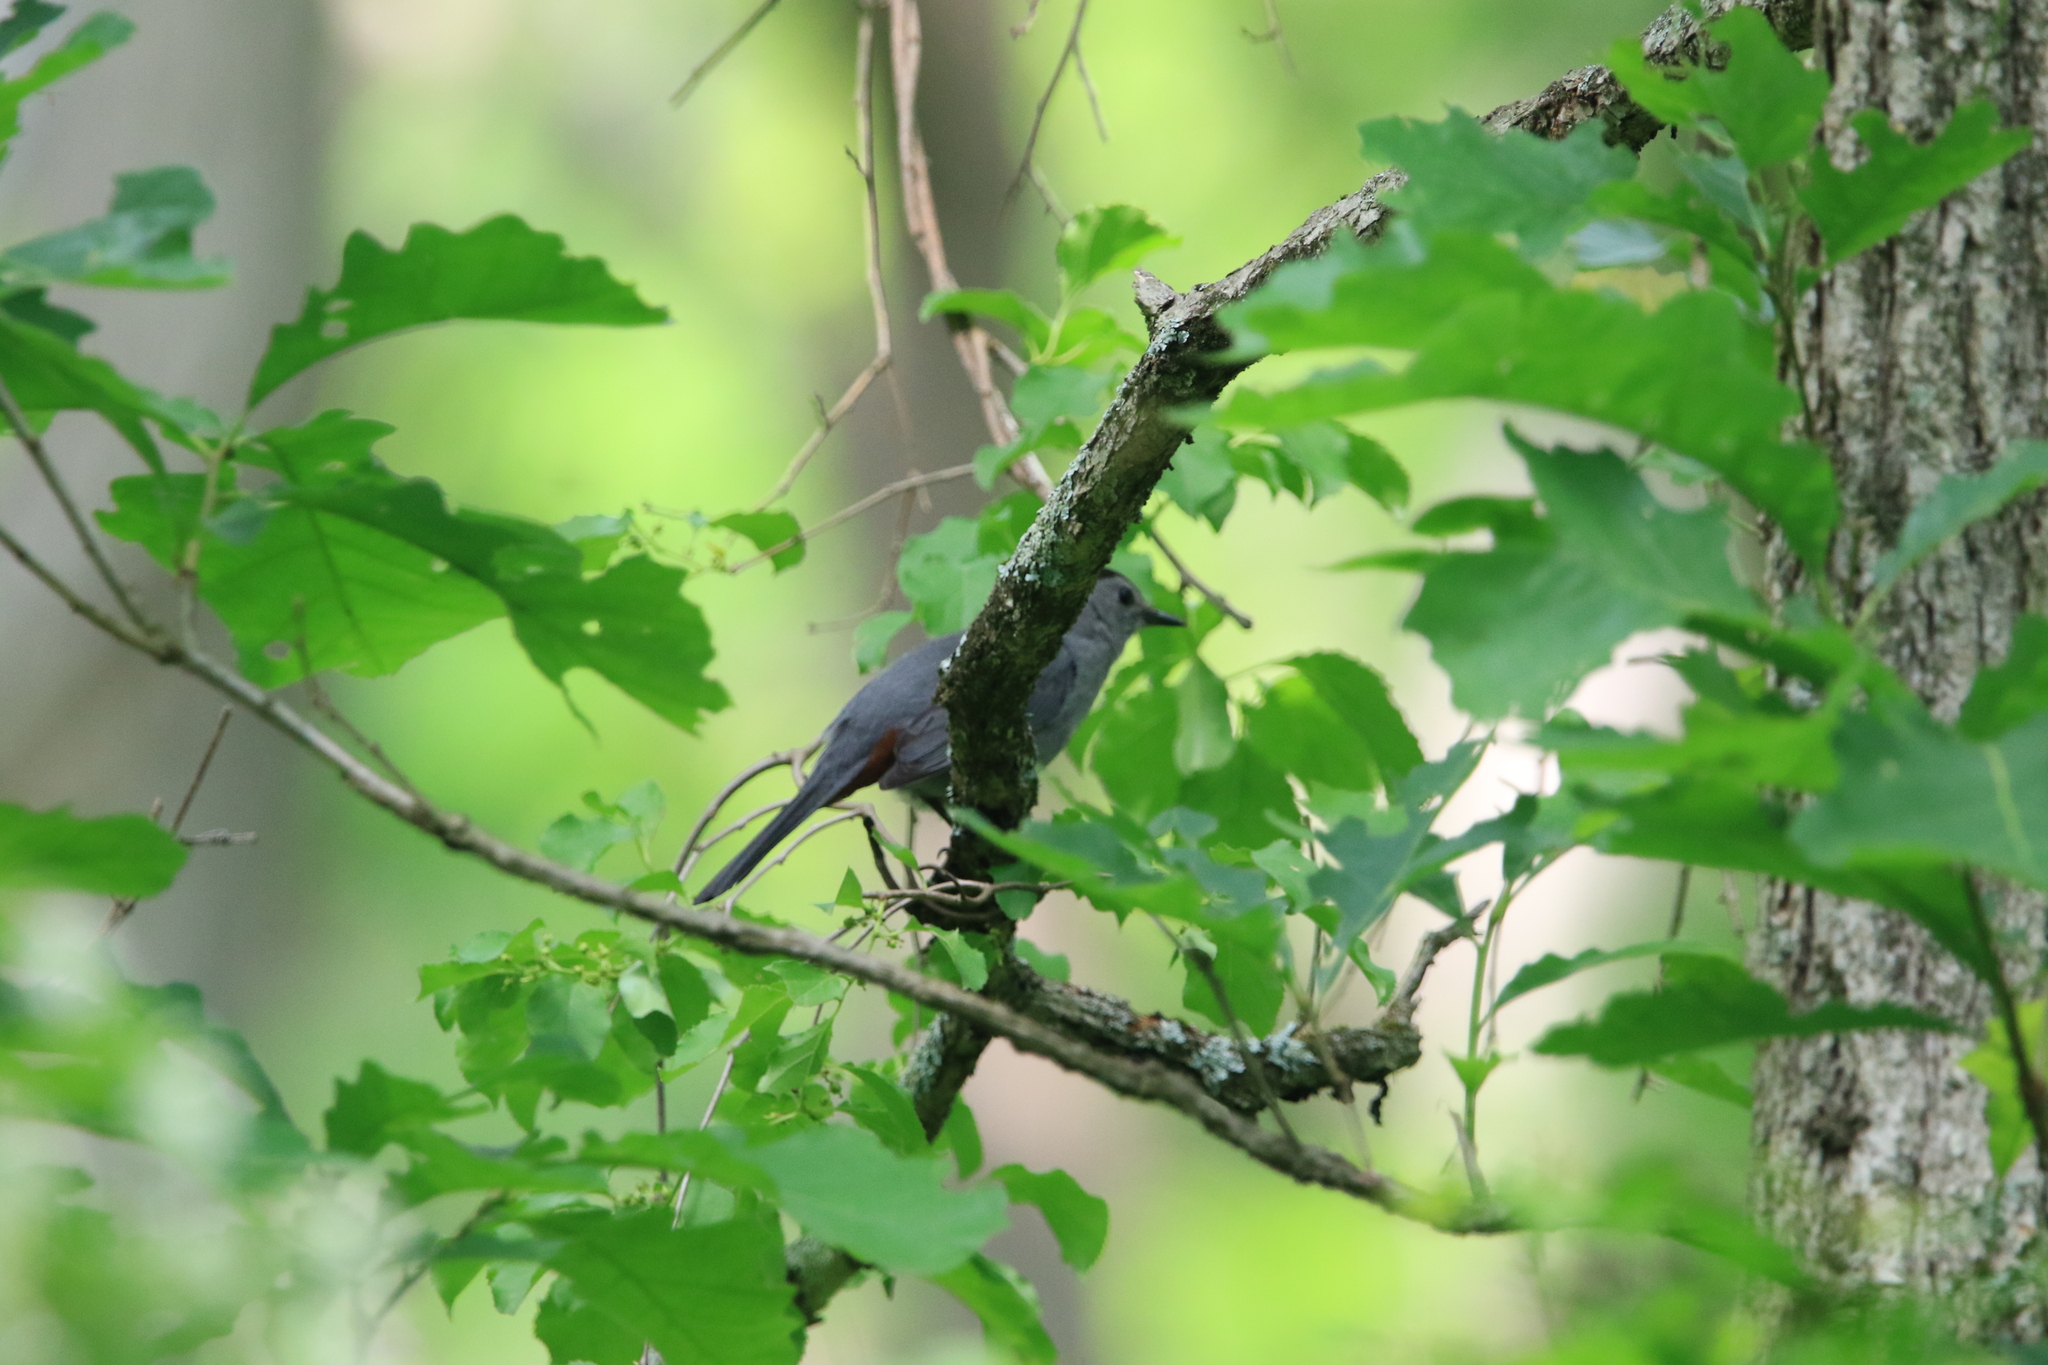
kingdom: Animalia
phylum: Chordata
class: Aves
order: Passeriformes
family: Mimidae
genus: Dumetella
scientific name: Dumetella carolinensis
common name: Gray catbird
